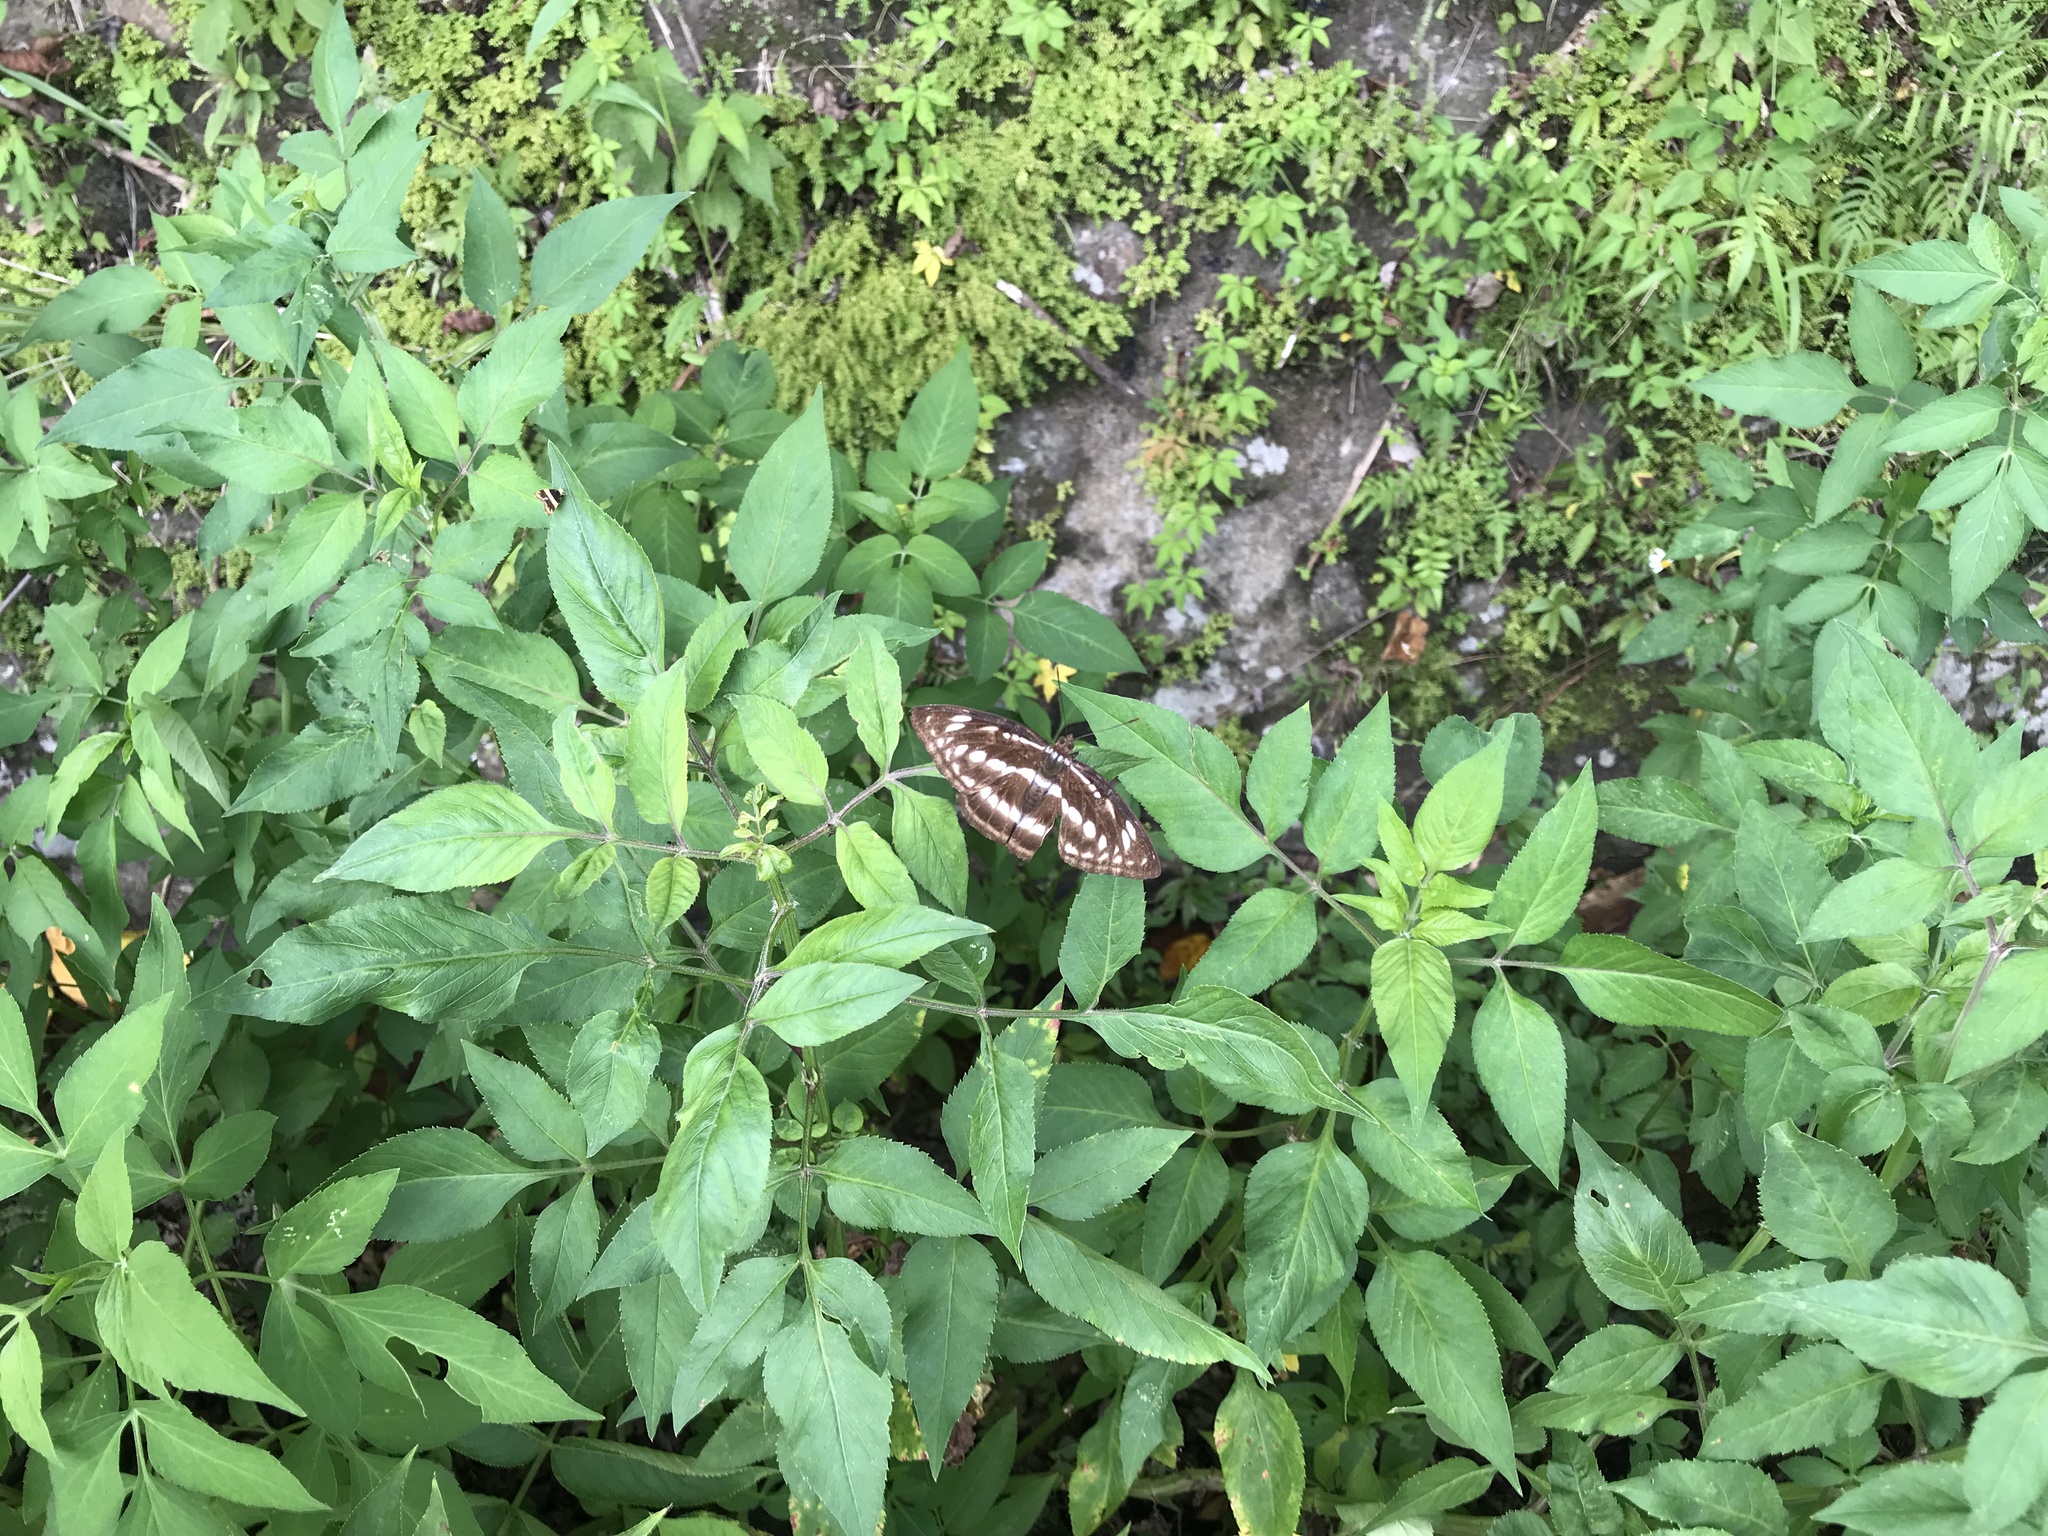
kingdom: Animalia
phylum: Arthropoda
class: Insecta
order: Lepidoptera
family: Nymphalidae
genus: Parathyma
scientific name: Parathyma selenophora
